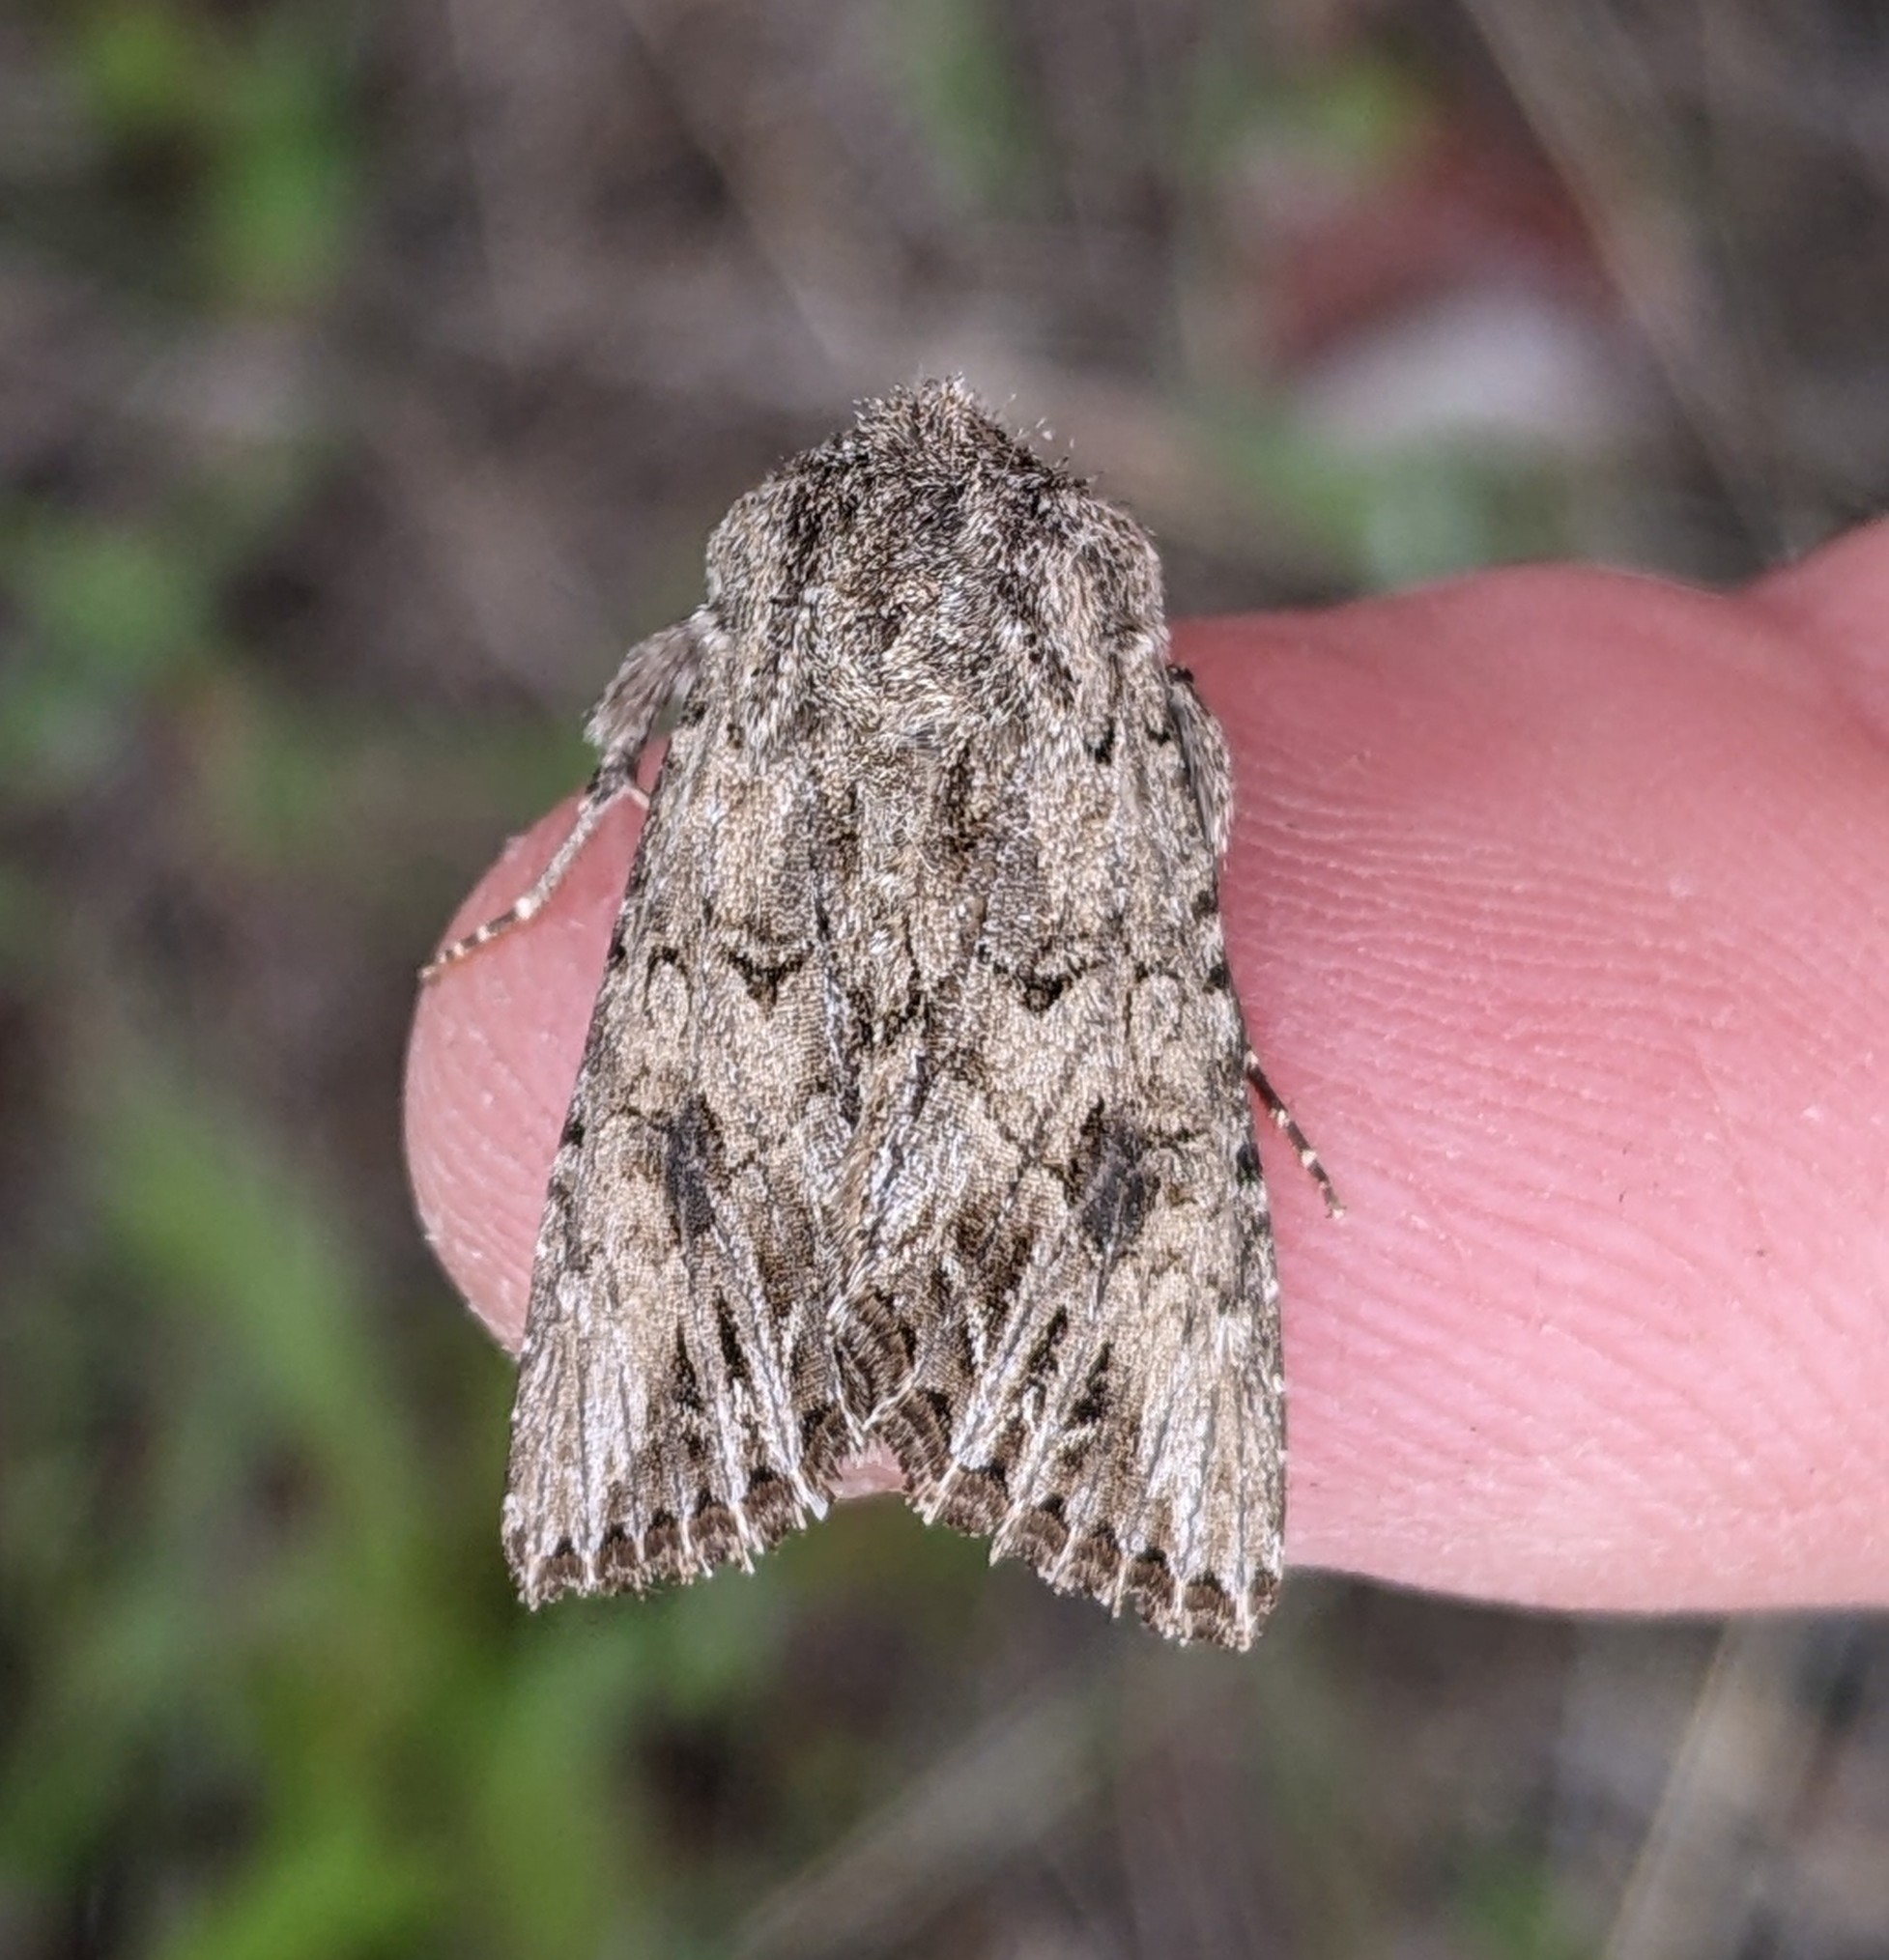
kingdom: Animalia
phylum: Arthropoda
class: Insecta
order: Lepidoptera
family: Noctuidae
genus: Anarta
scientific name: Anarta mutata
